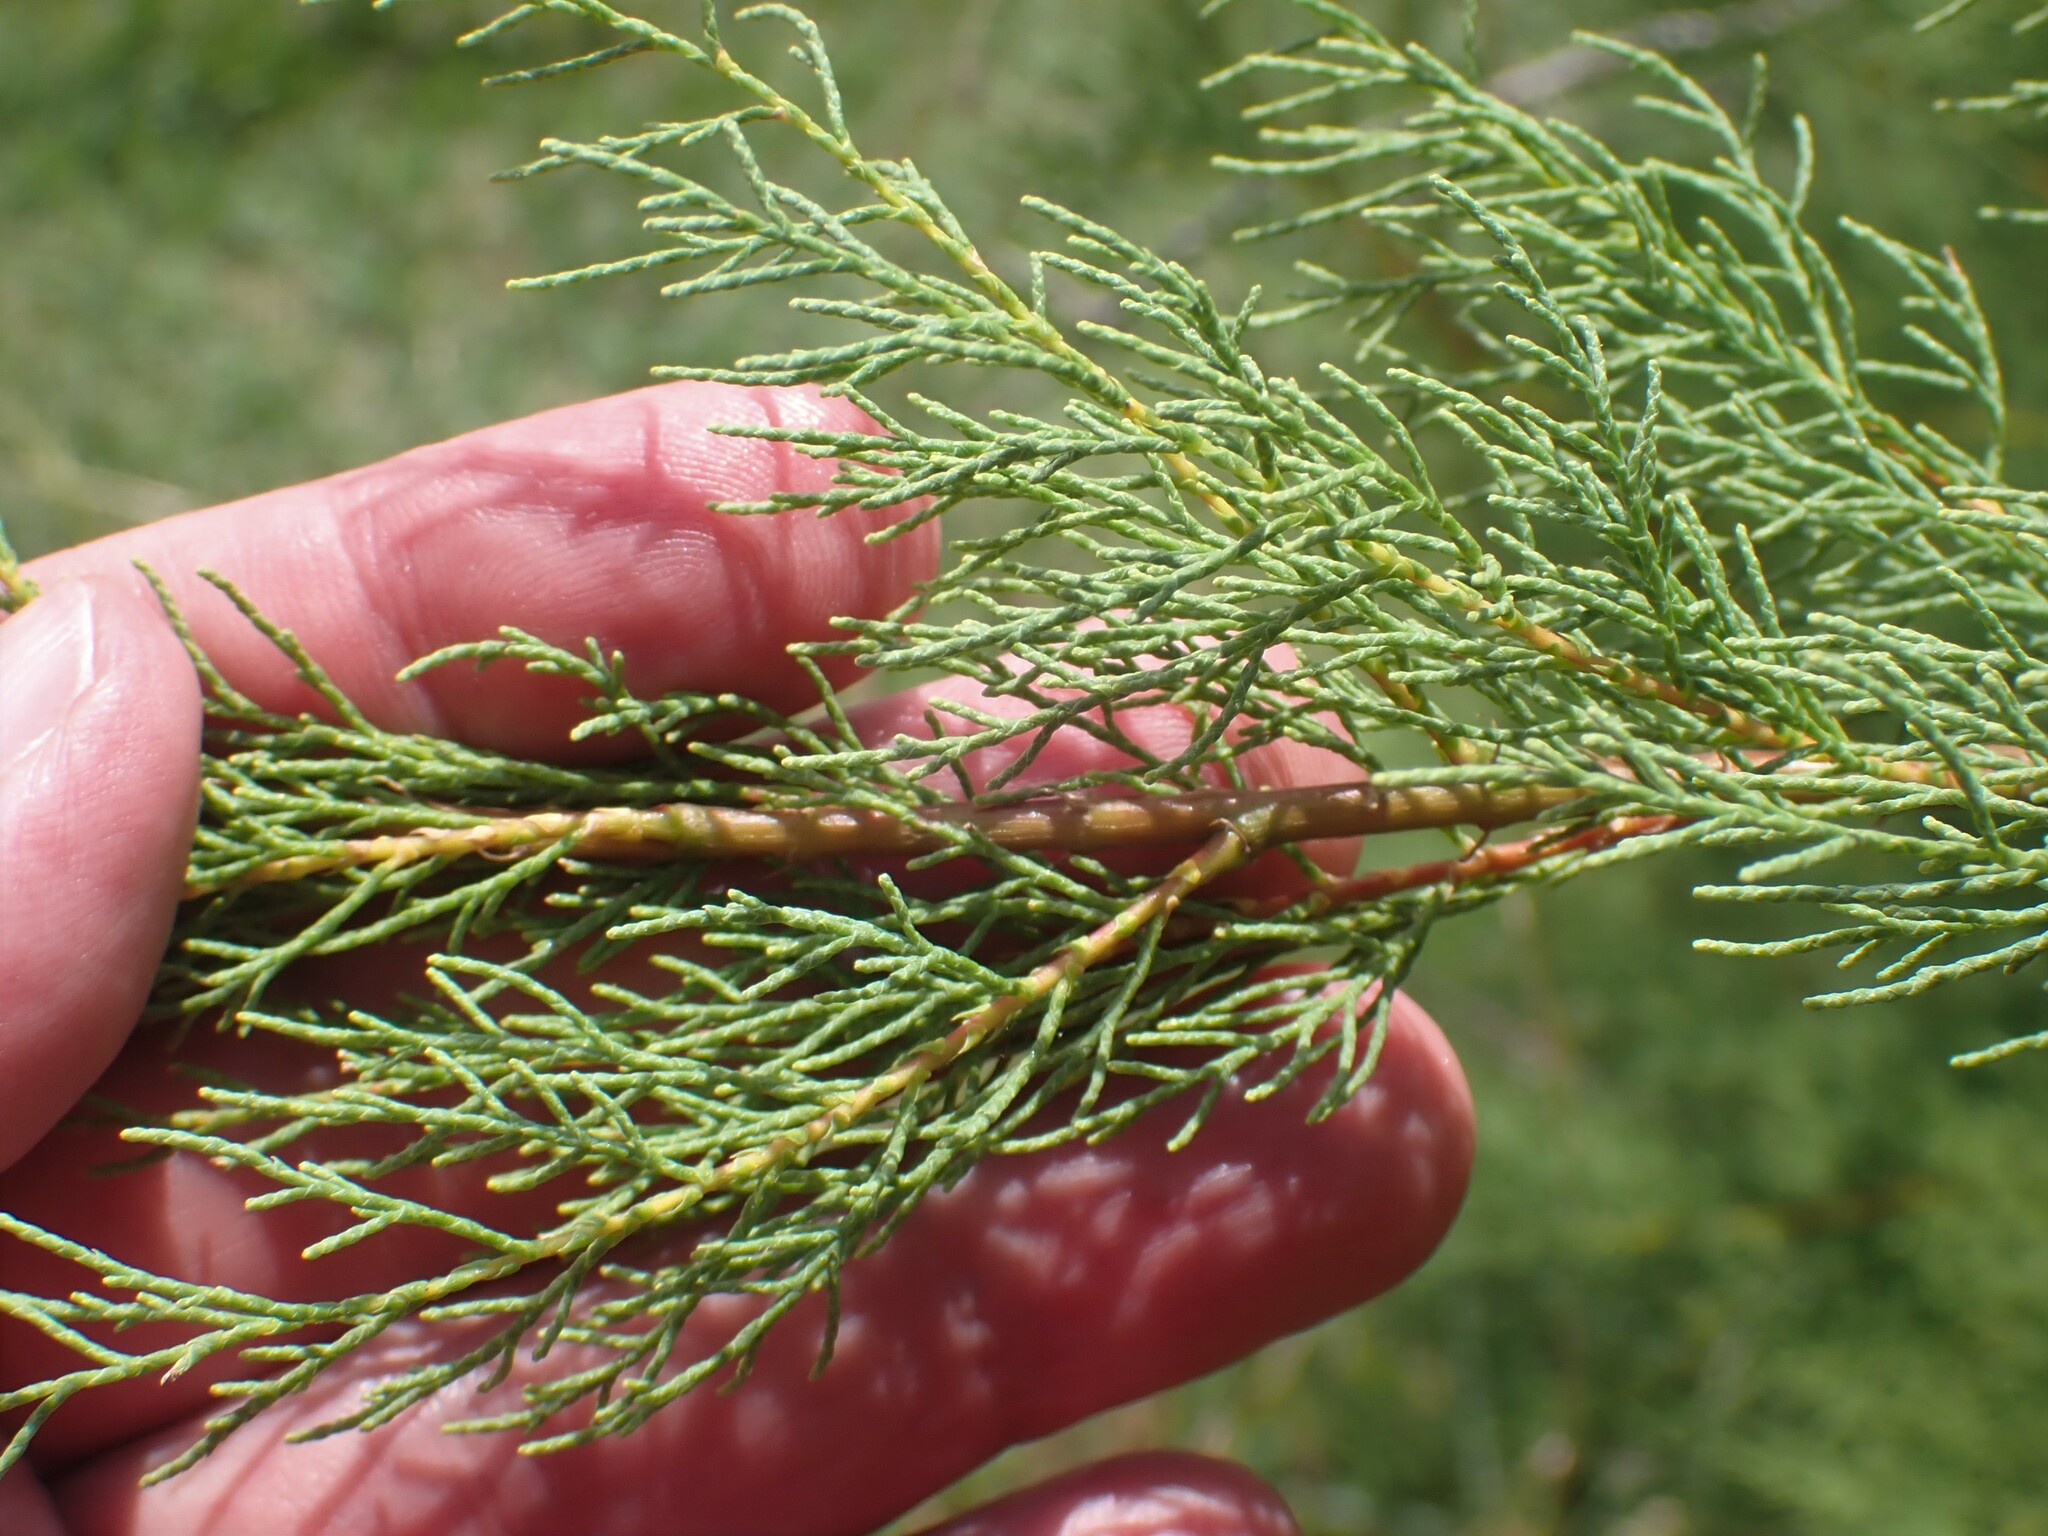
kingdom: Plantae
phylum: Tracheophyta
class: Magnoliopsida
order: Caryophyllales
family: Tamaricaceae
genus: Tamarix
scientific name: Tamarix africana
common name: African tamarisk
